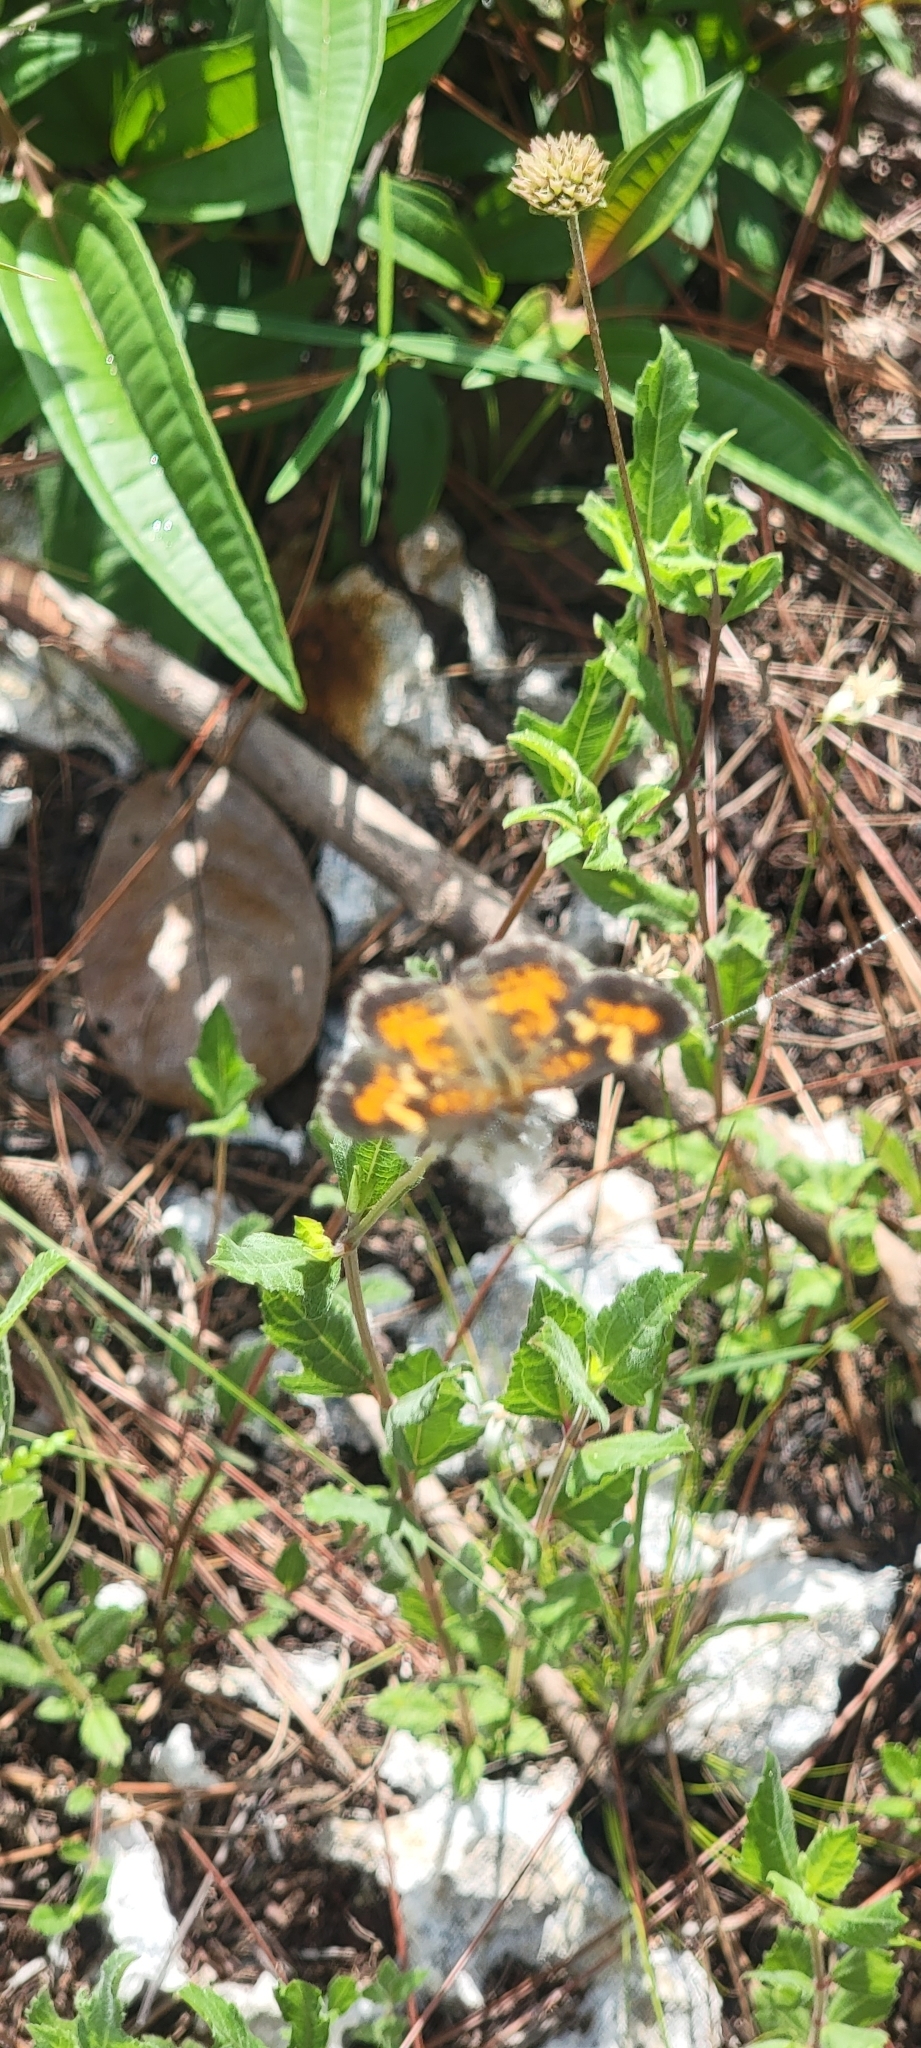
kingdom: Animalia
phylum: Arthropoda
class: Insecta
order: Lepidoptera
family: Nymphalidae
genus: Phyciodes
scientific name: Phyciodes phaon
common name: Phaon crescent
